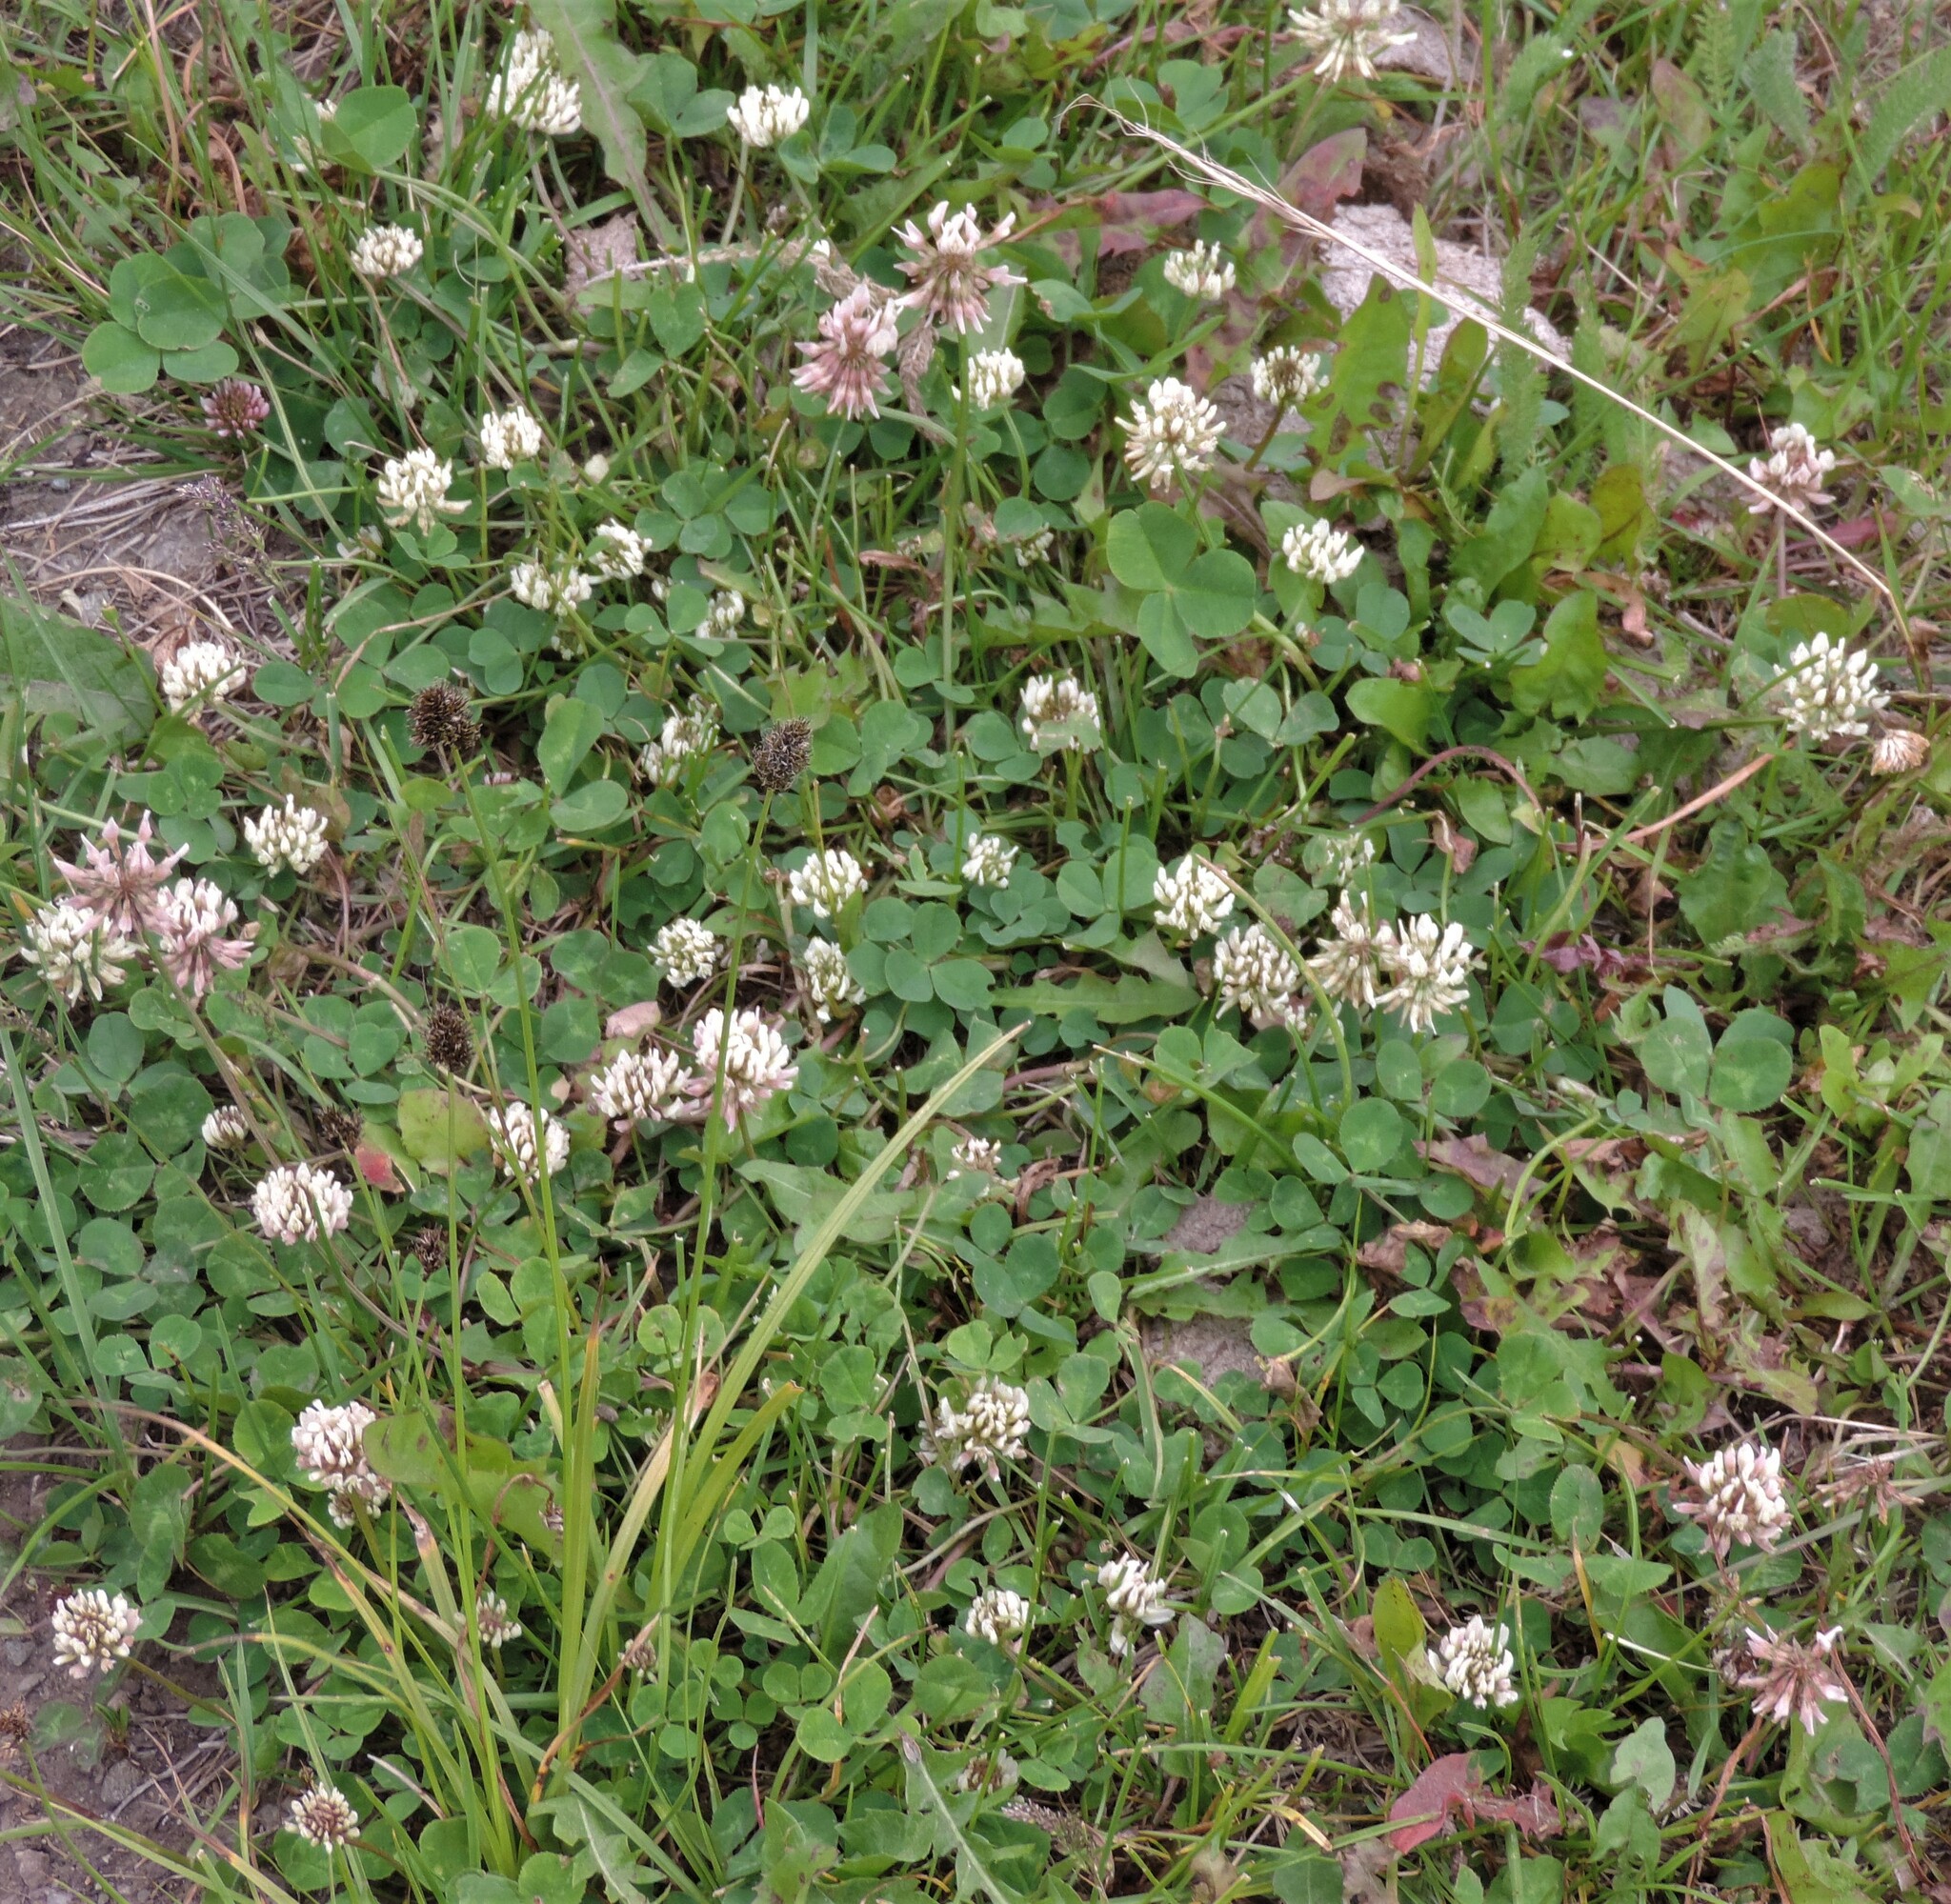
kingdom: Plantae
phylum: Tracheophyta
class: Magnoliopsida
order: Fabales
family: Fabaceae
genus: Trifolium
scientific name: Trifolium repens
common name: White clover
